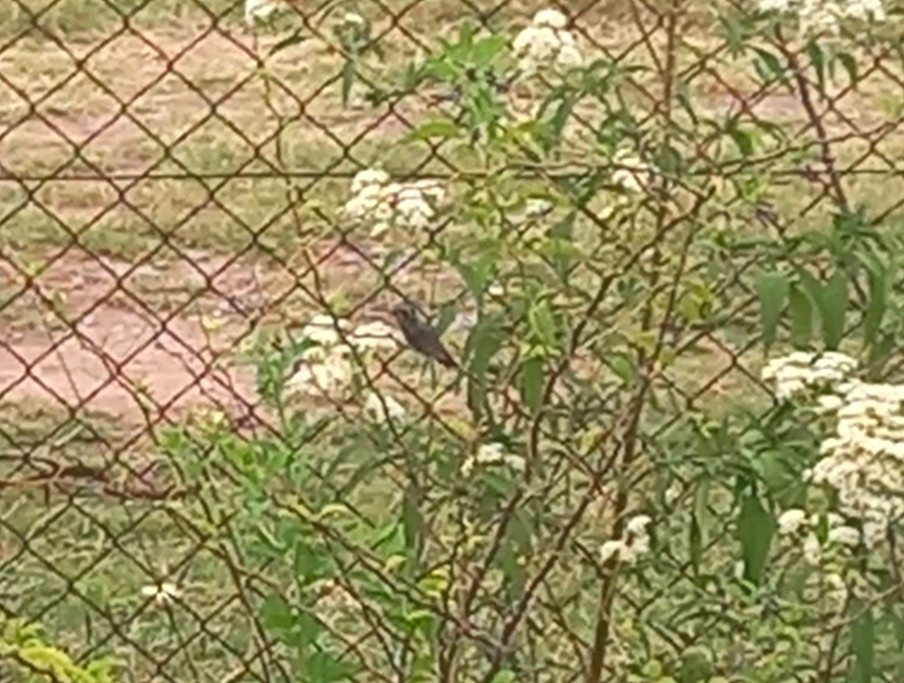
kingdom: Animalia
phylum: Chordata
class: Aves
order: Apodiformes
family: Trochilidae
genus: Chlorostilbon
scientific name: Chlorostilbon lucidus
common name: Glittering-bellied emerald
